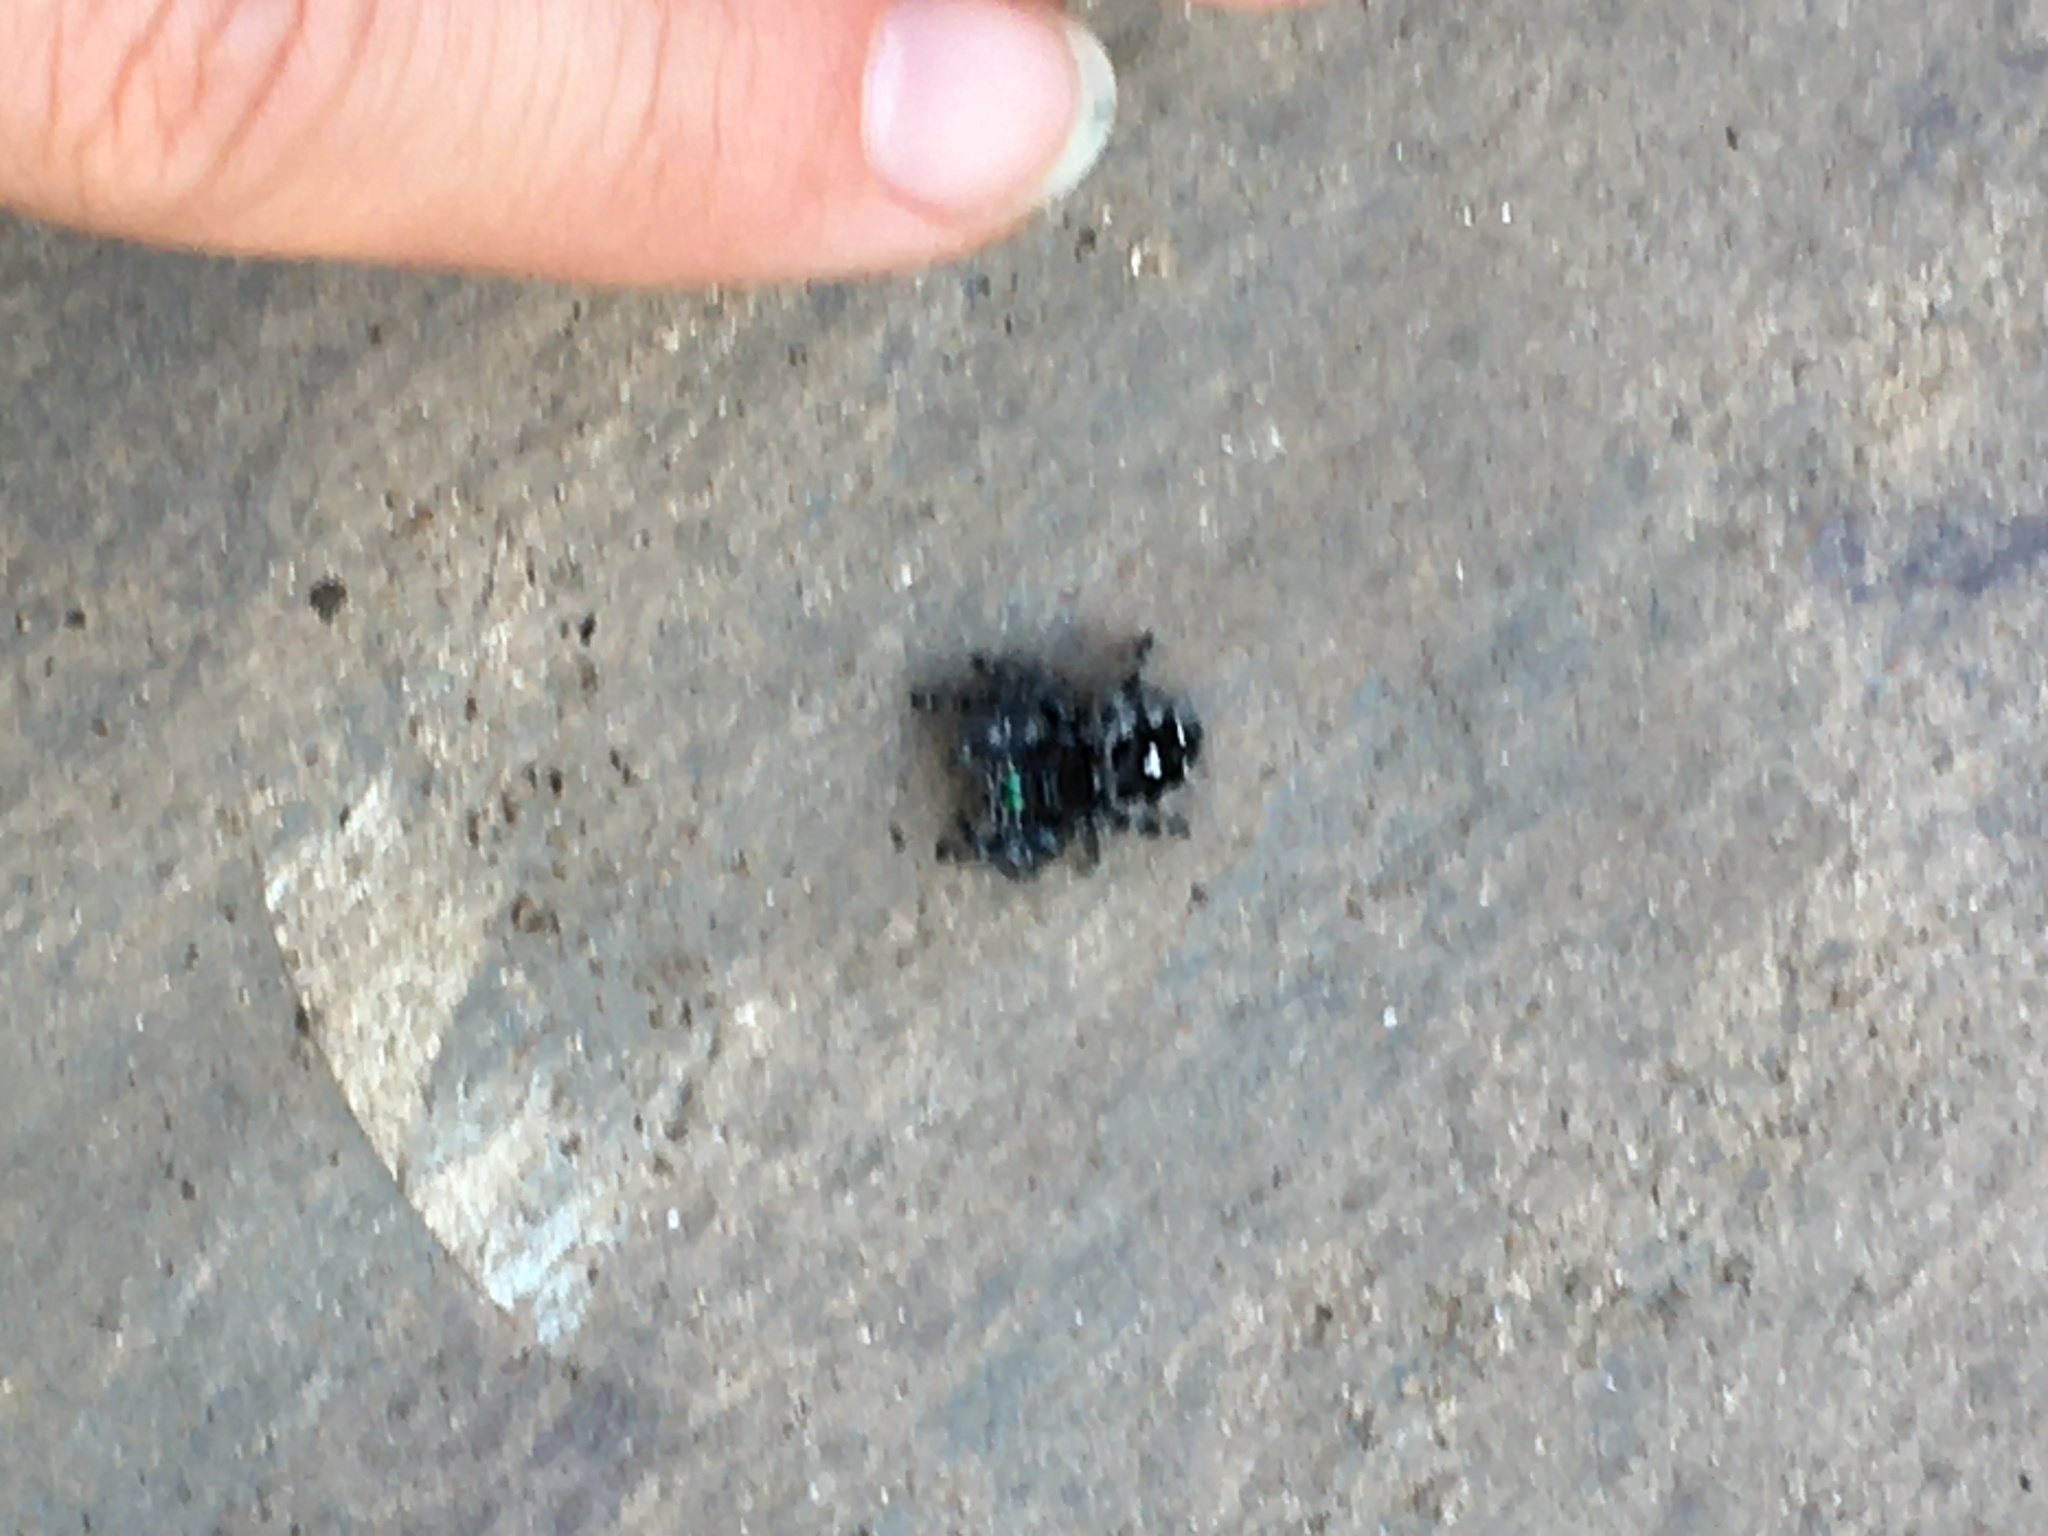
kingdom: Animalia
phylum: Arthropoda
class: Arachnida
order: Araneae
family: Salticidae
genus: Phidippus
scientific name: Phidippus audax
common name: Bold jumper
